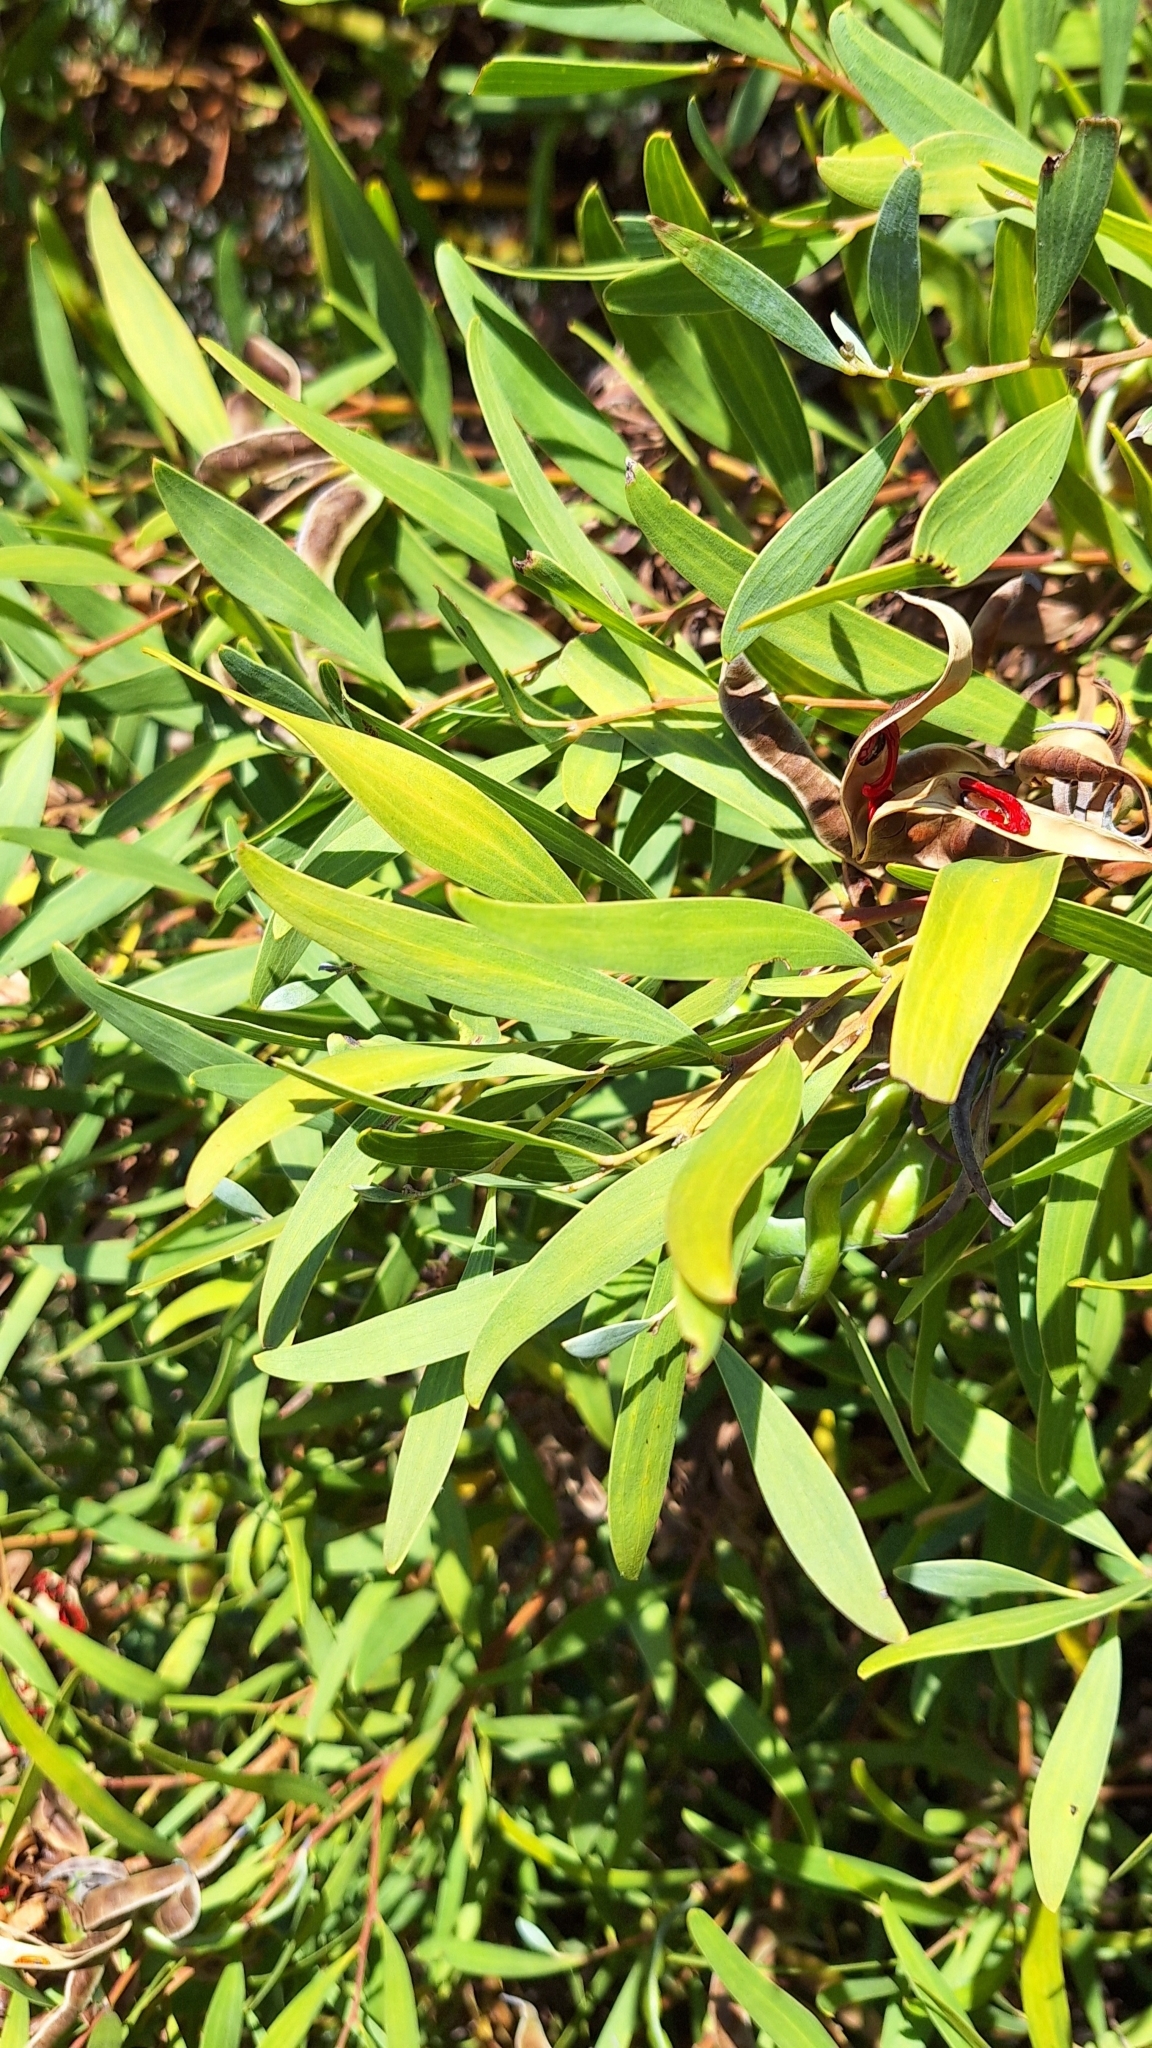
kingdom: Plantae
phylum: Tracheophyta
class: Magnoliopsida
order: Fabales
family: Fabaceae
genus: Acacia
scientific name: Acacia cyclops
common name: Coastal wattle
